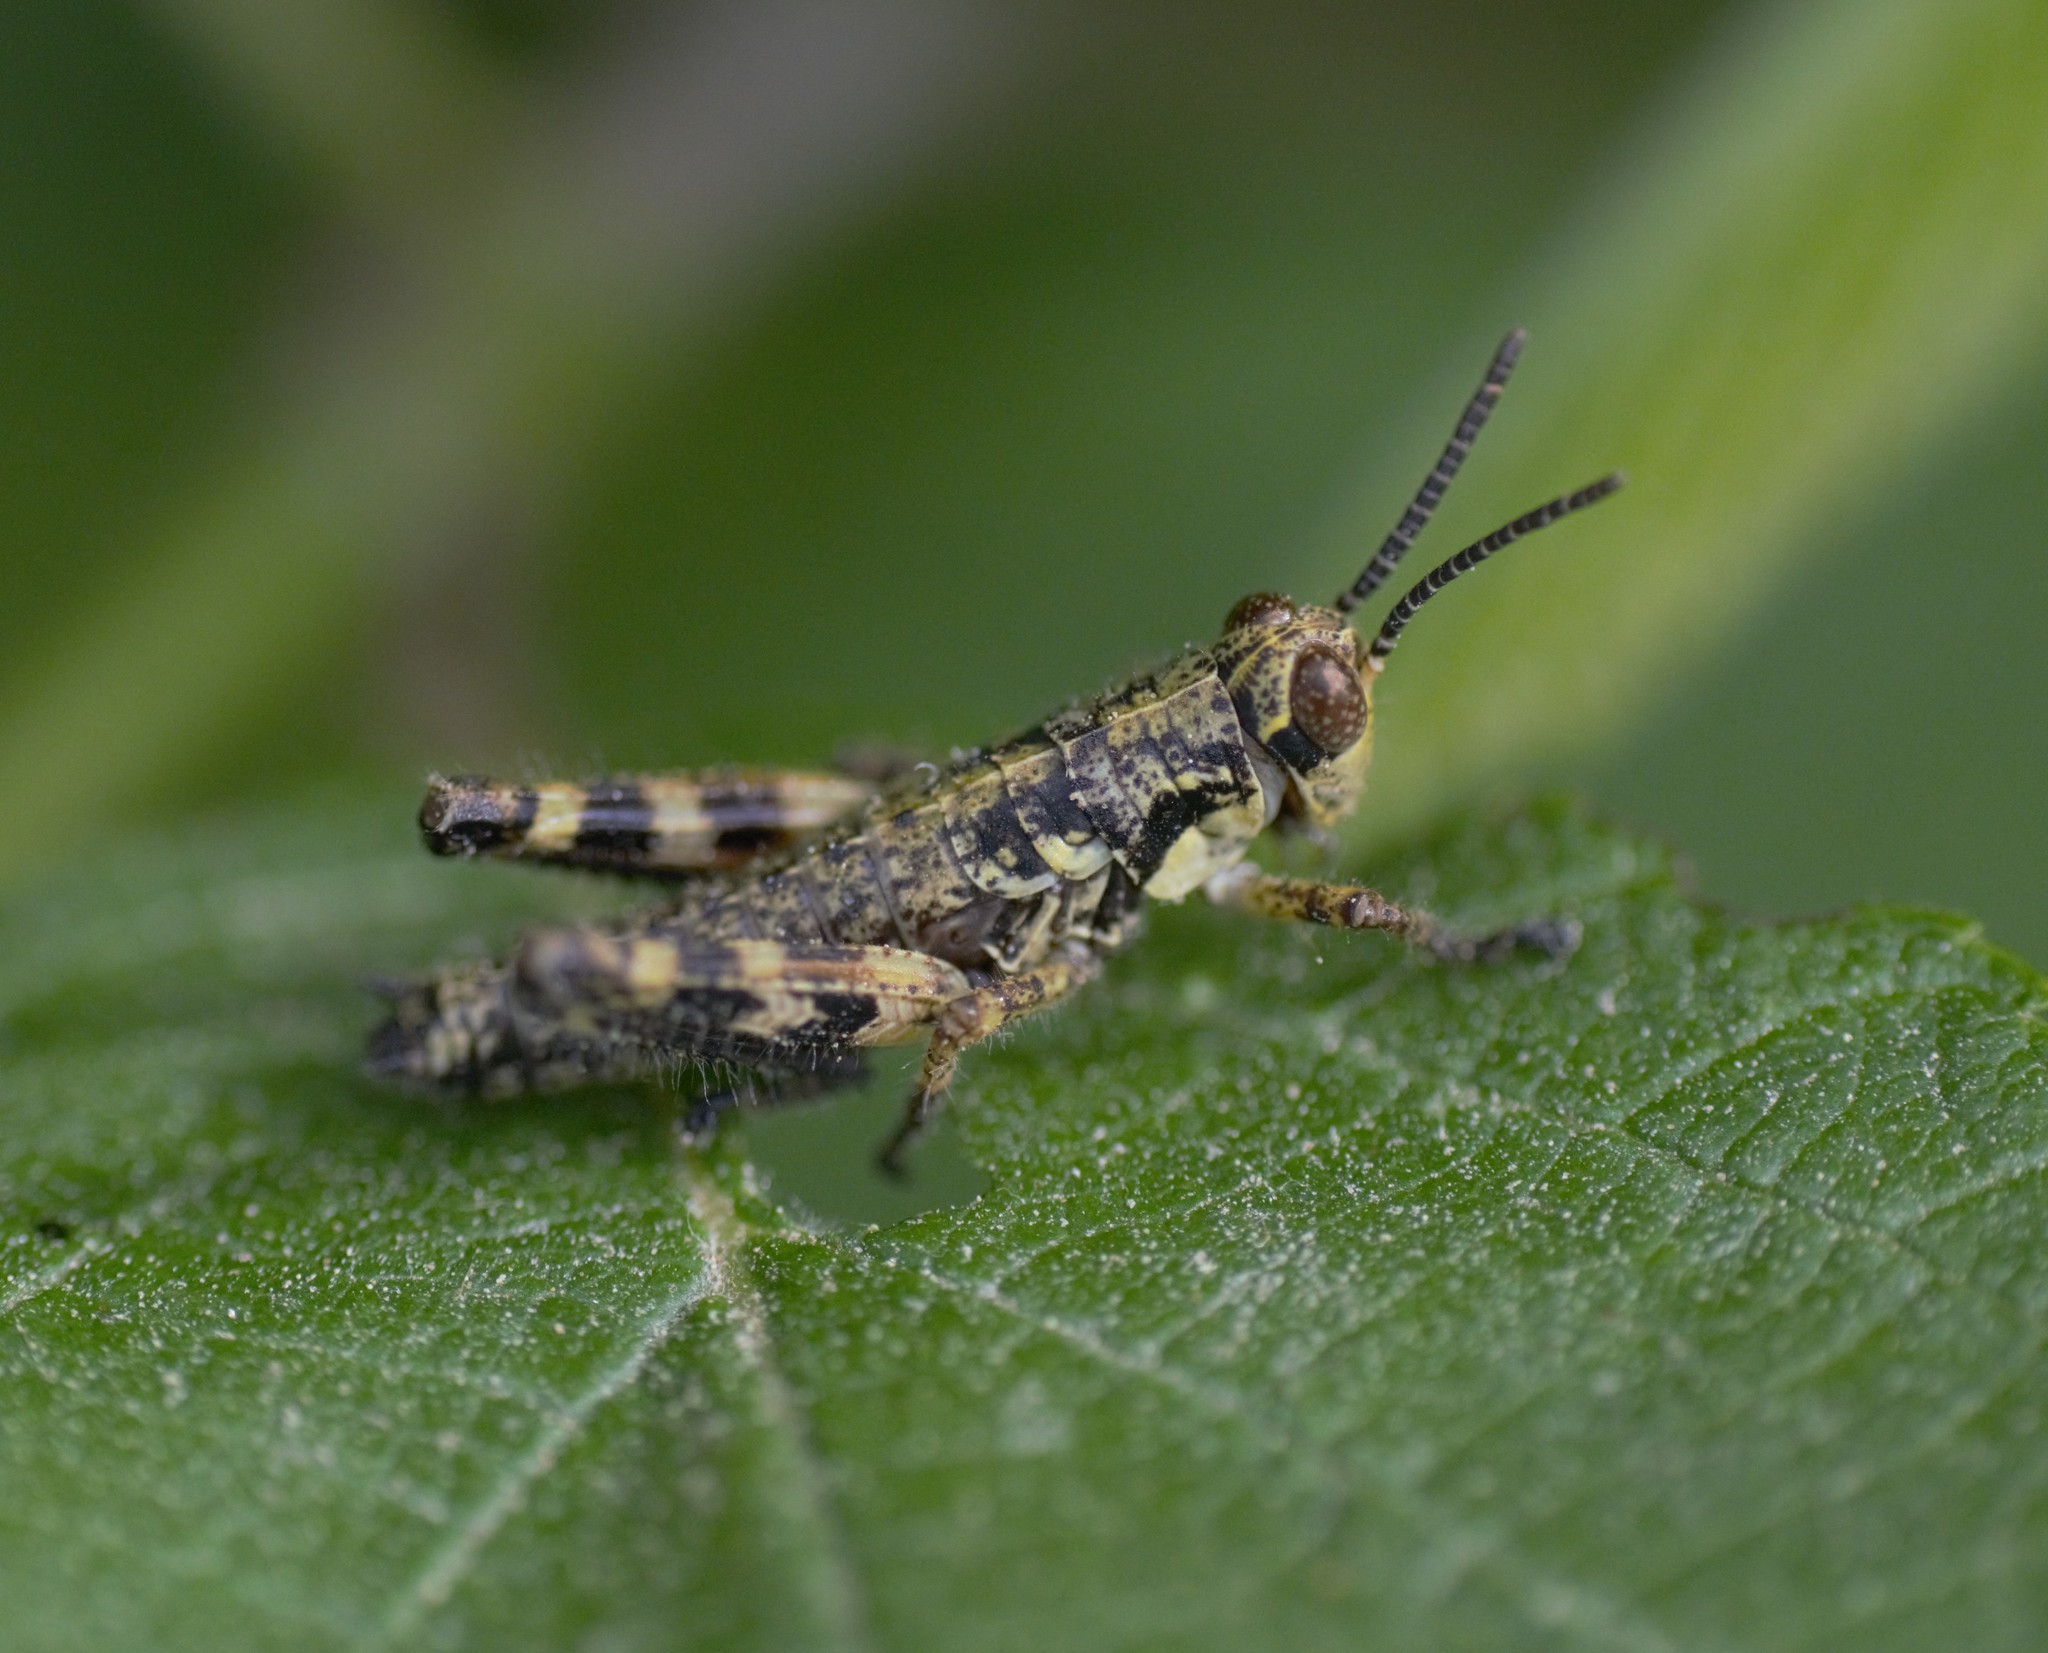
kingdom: Animalia
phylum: Arthropoda
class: Insecta
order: Orthoptera
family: Acrididae
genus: Booneacris
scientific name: Booneacris glacialis
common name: Wingless mountain grasshopper
